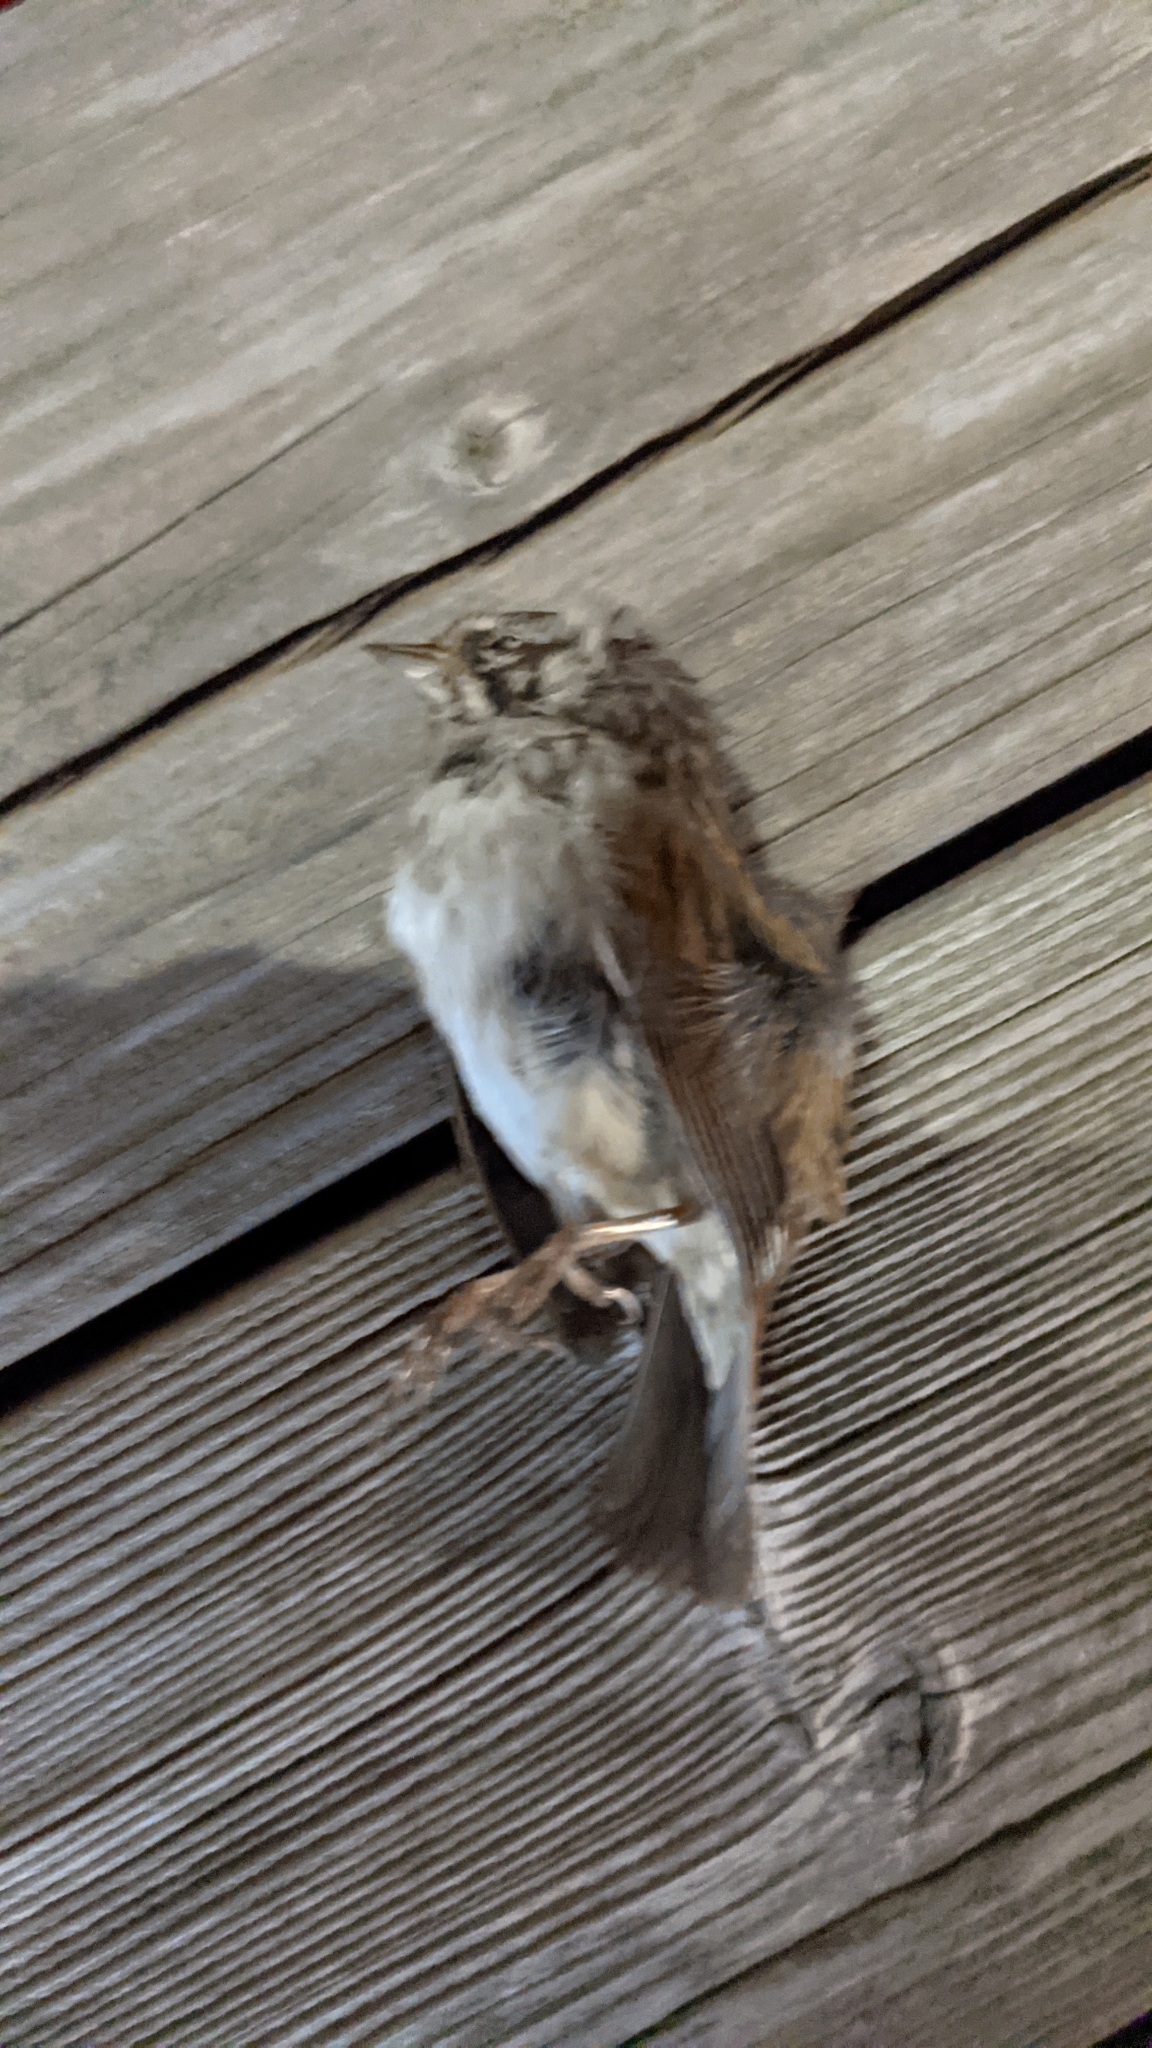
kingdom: Animalia
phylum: Chordata
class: Aves
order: Passeriformes
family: Passerellidae
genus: Melospiza
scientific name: Melospiza melodia
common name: Song sparrow
